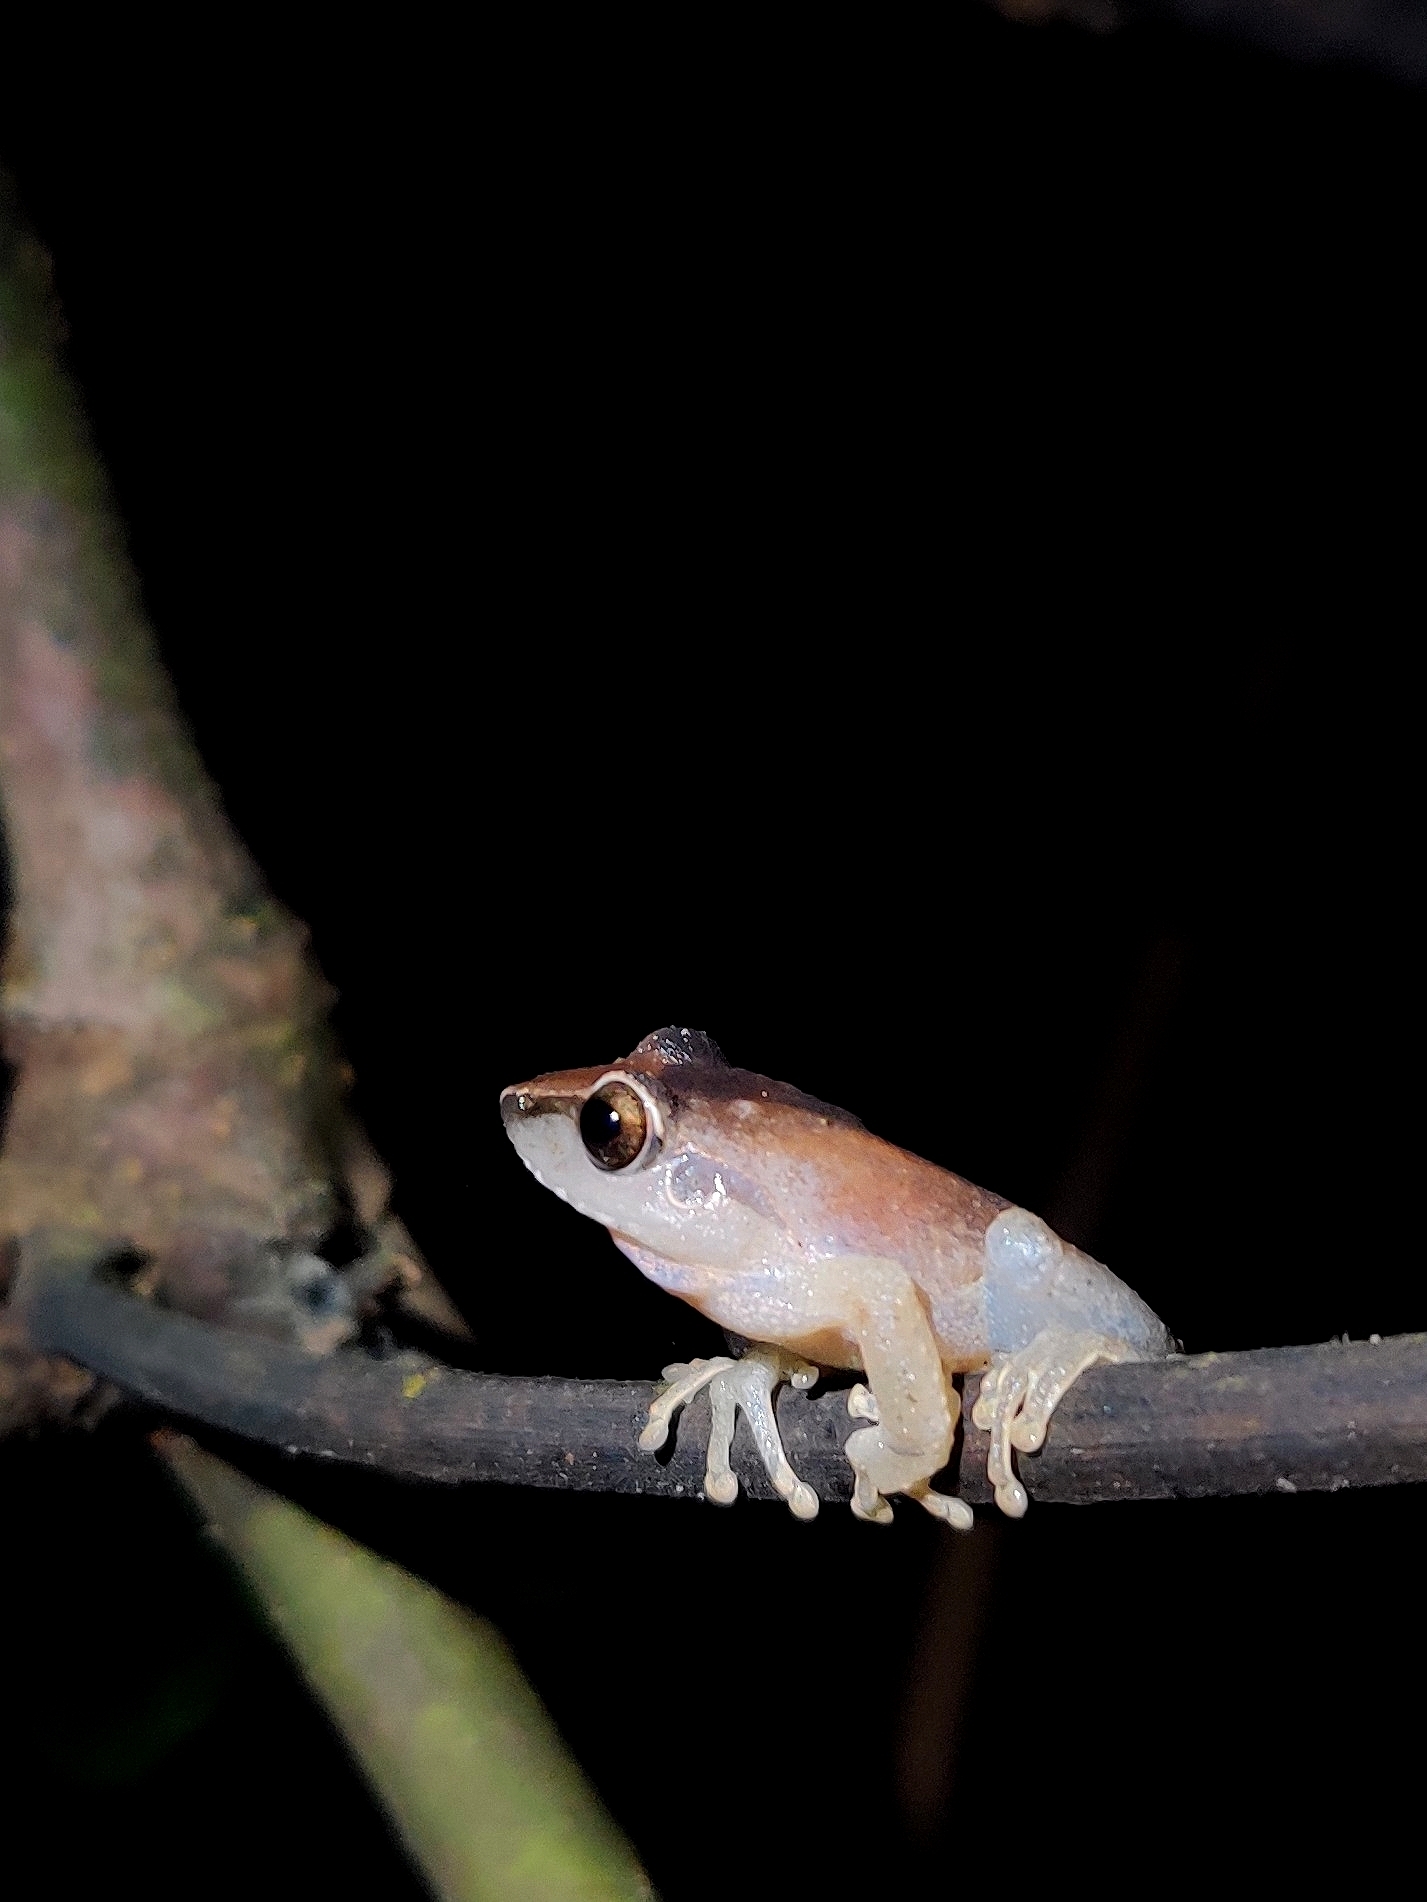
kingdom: Animalia
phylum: Chordata
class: Amphibia
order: Anura
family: Rhacophoridae
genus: Pseudophilautus
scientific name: Pseudophilautus amboli
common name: Amboli bush frog
